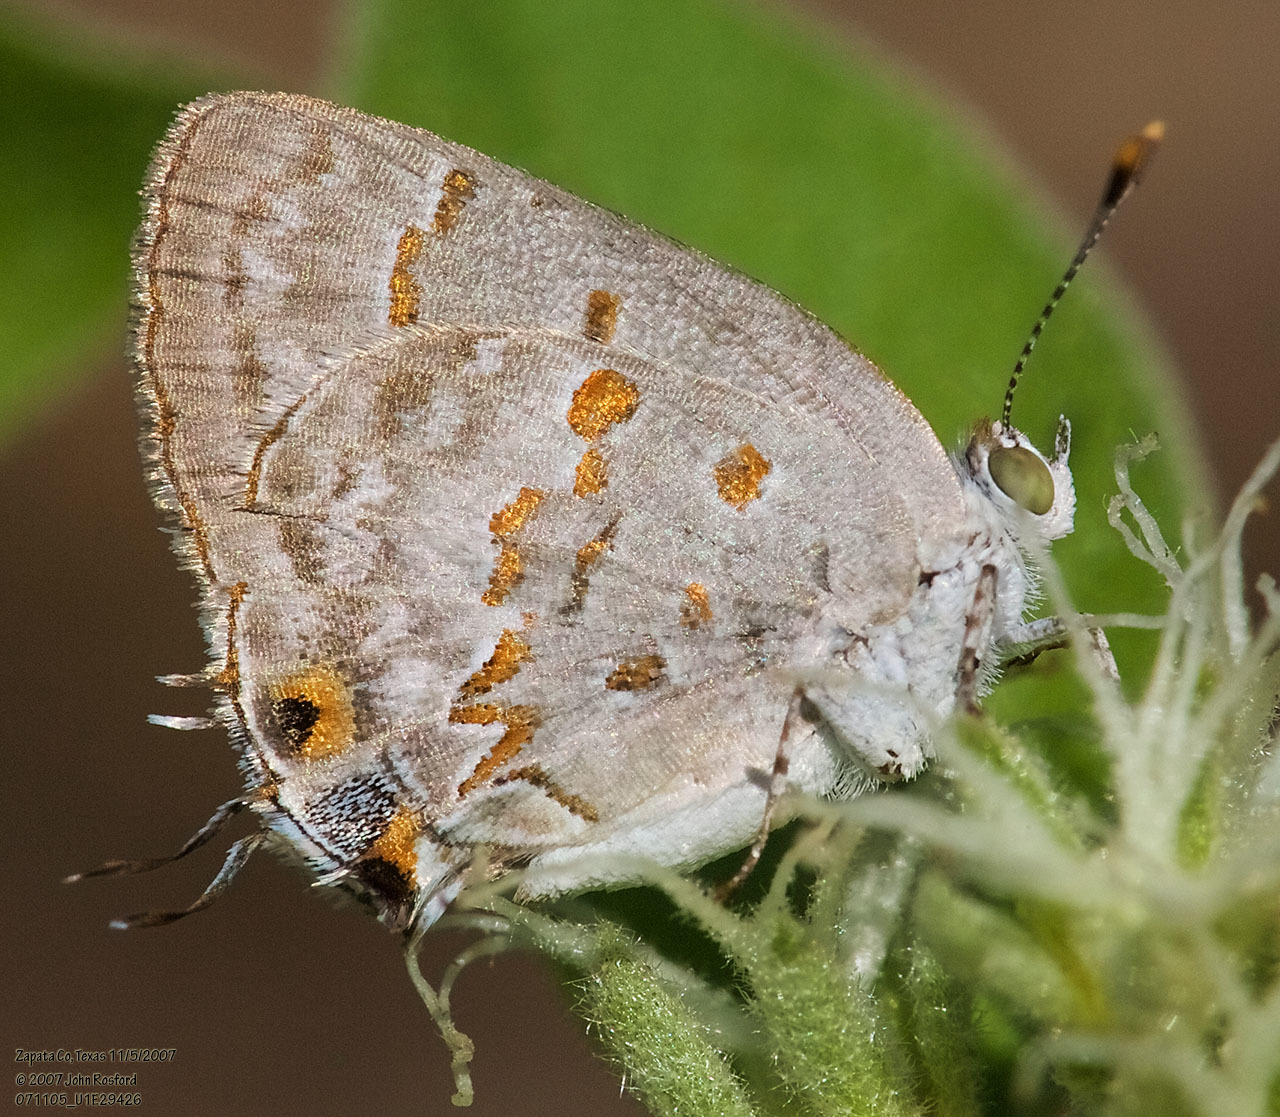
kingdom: Animalia
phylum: Arthropoda
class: Insecta
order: Lepidoptera
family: Lycaenidae
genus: Ministrymon
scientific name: Ministrymon clytie
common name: Clytie ministreak
